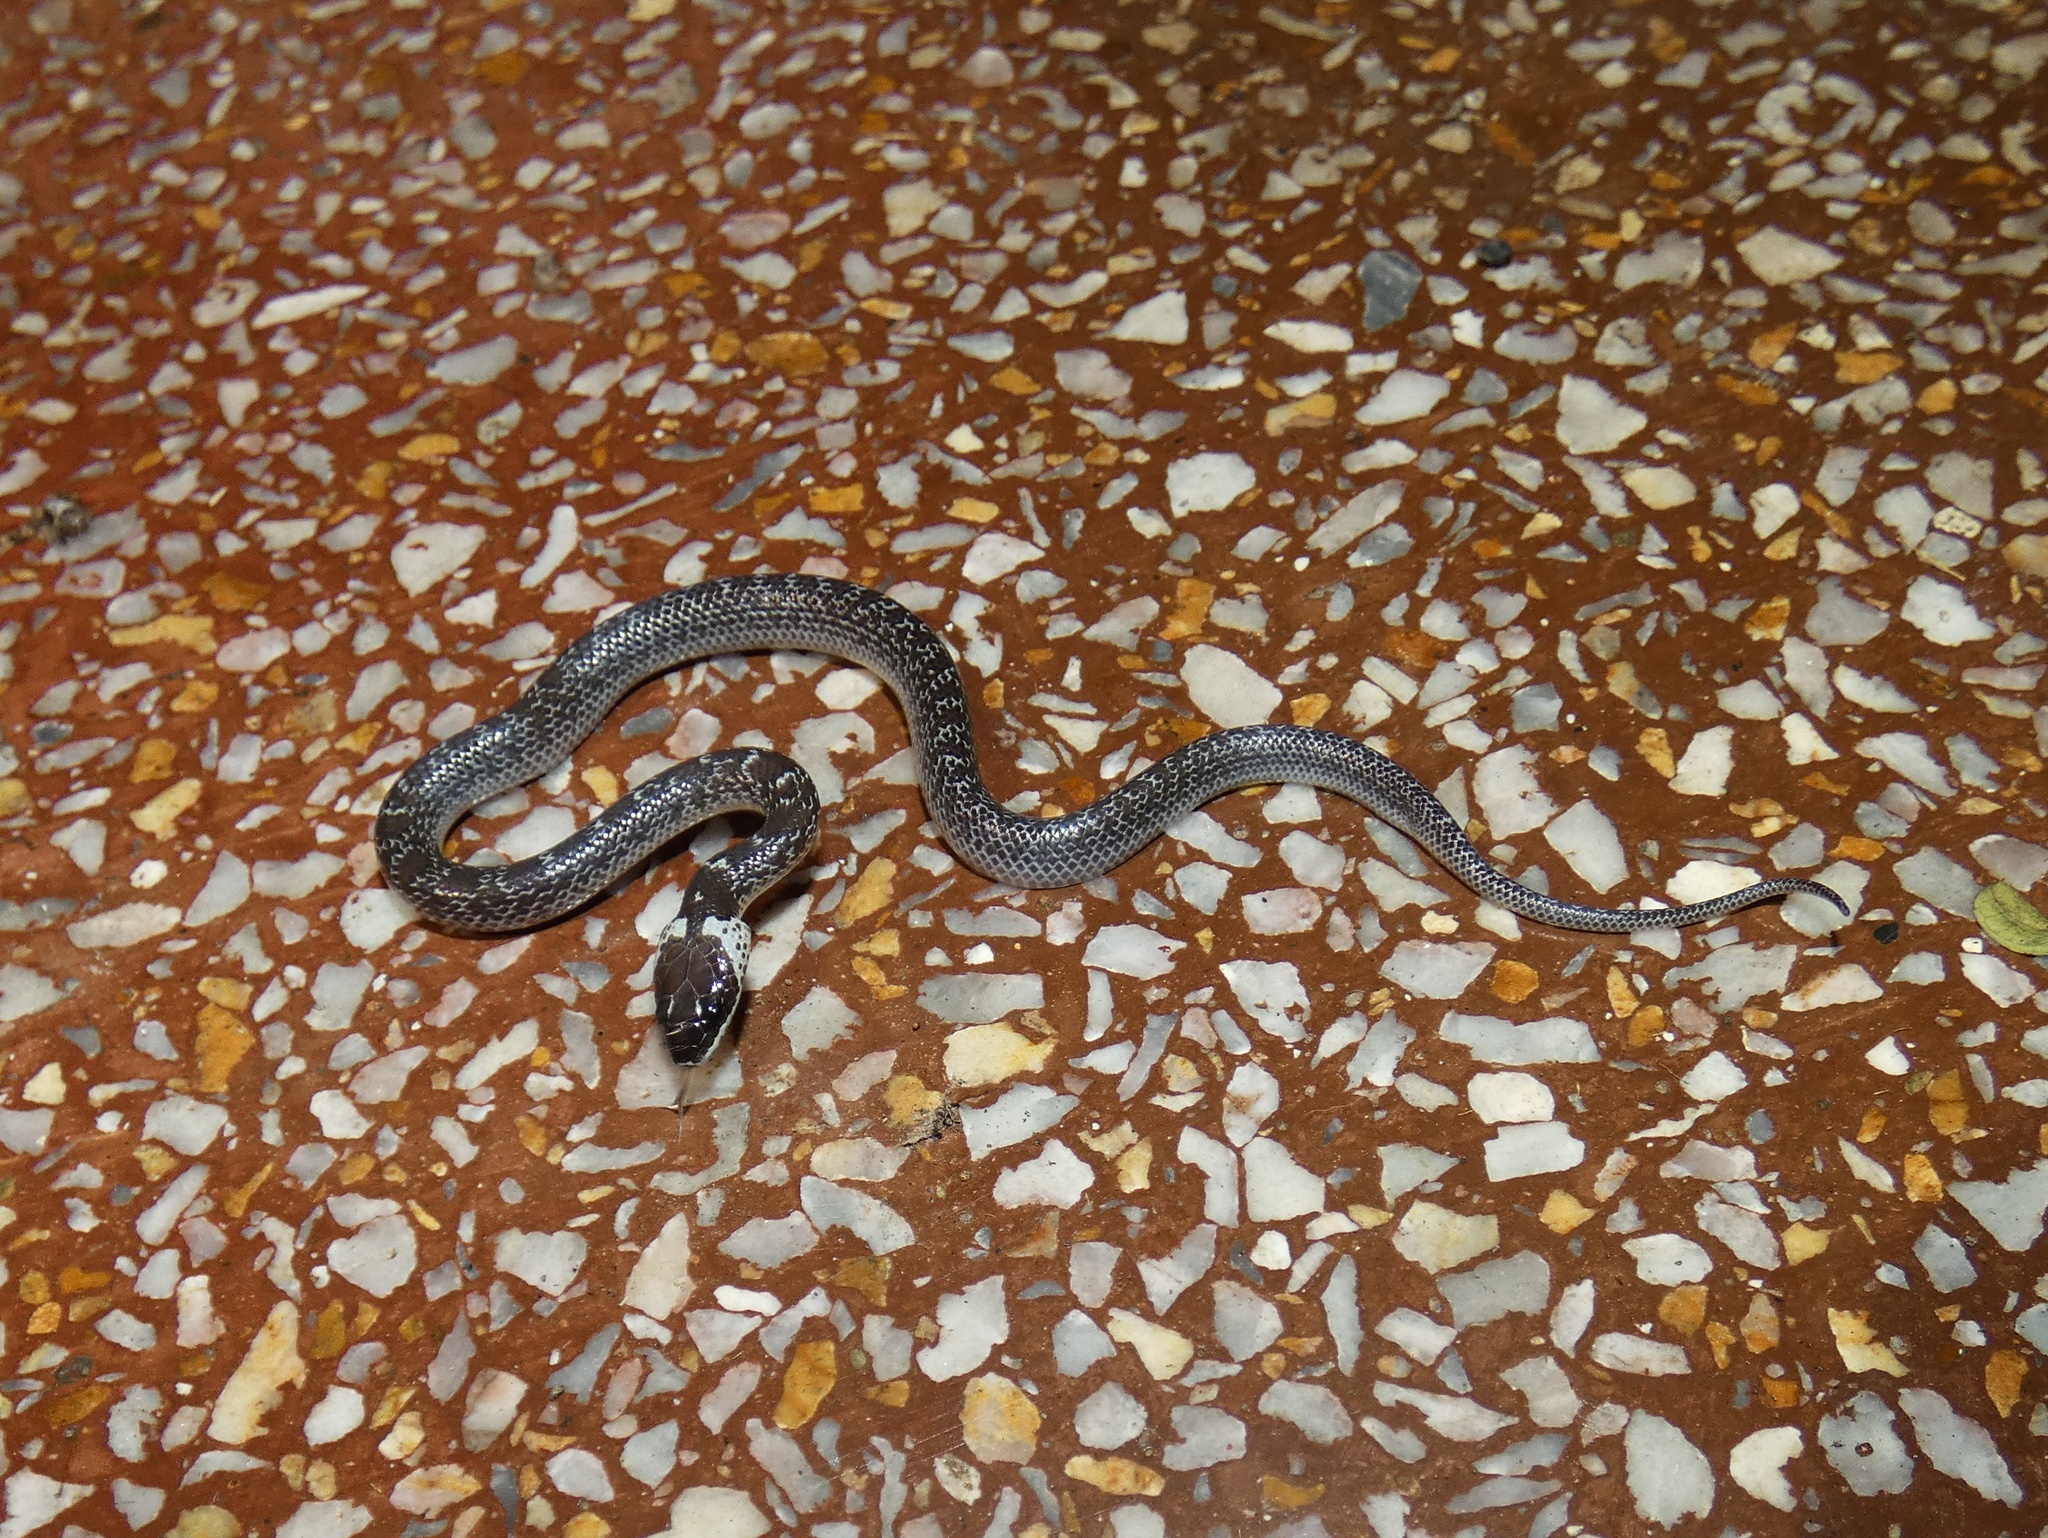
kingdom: Animalia
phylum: Chordata
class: Squamata
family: Colubridae
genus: Lycodon
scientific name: Lycodon capucinus
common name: Common wold snake/house snake
